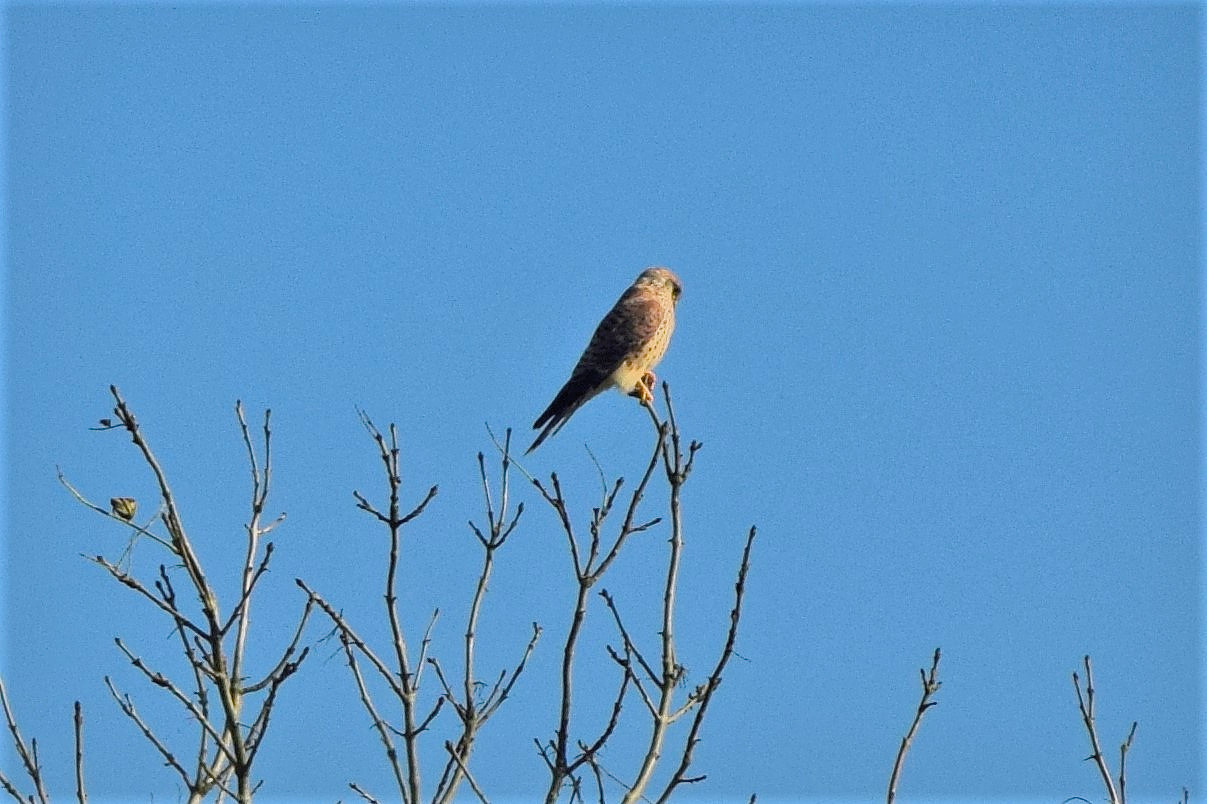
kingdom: Animalia
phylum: Chordata
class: Aves
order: Falconiformes
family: Falconidae
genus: Falco
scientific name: Falco tinnunculus
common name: Common kestrel
